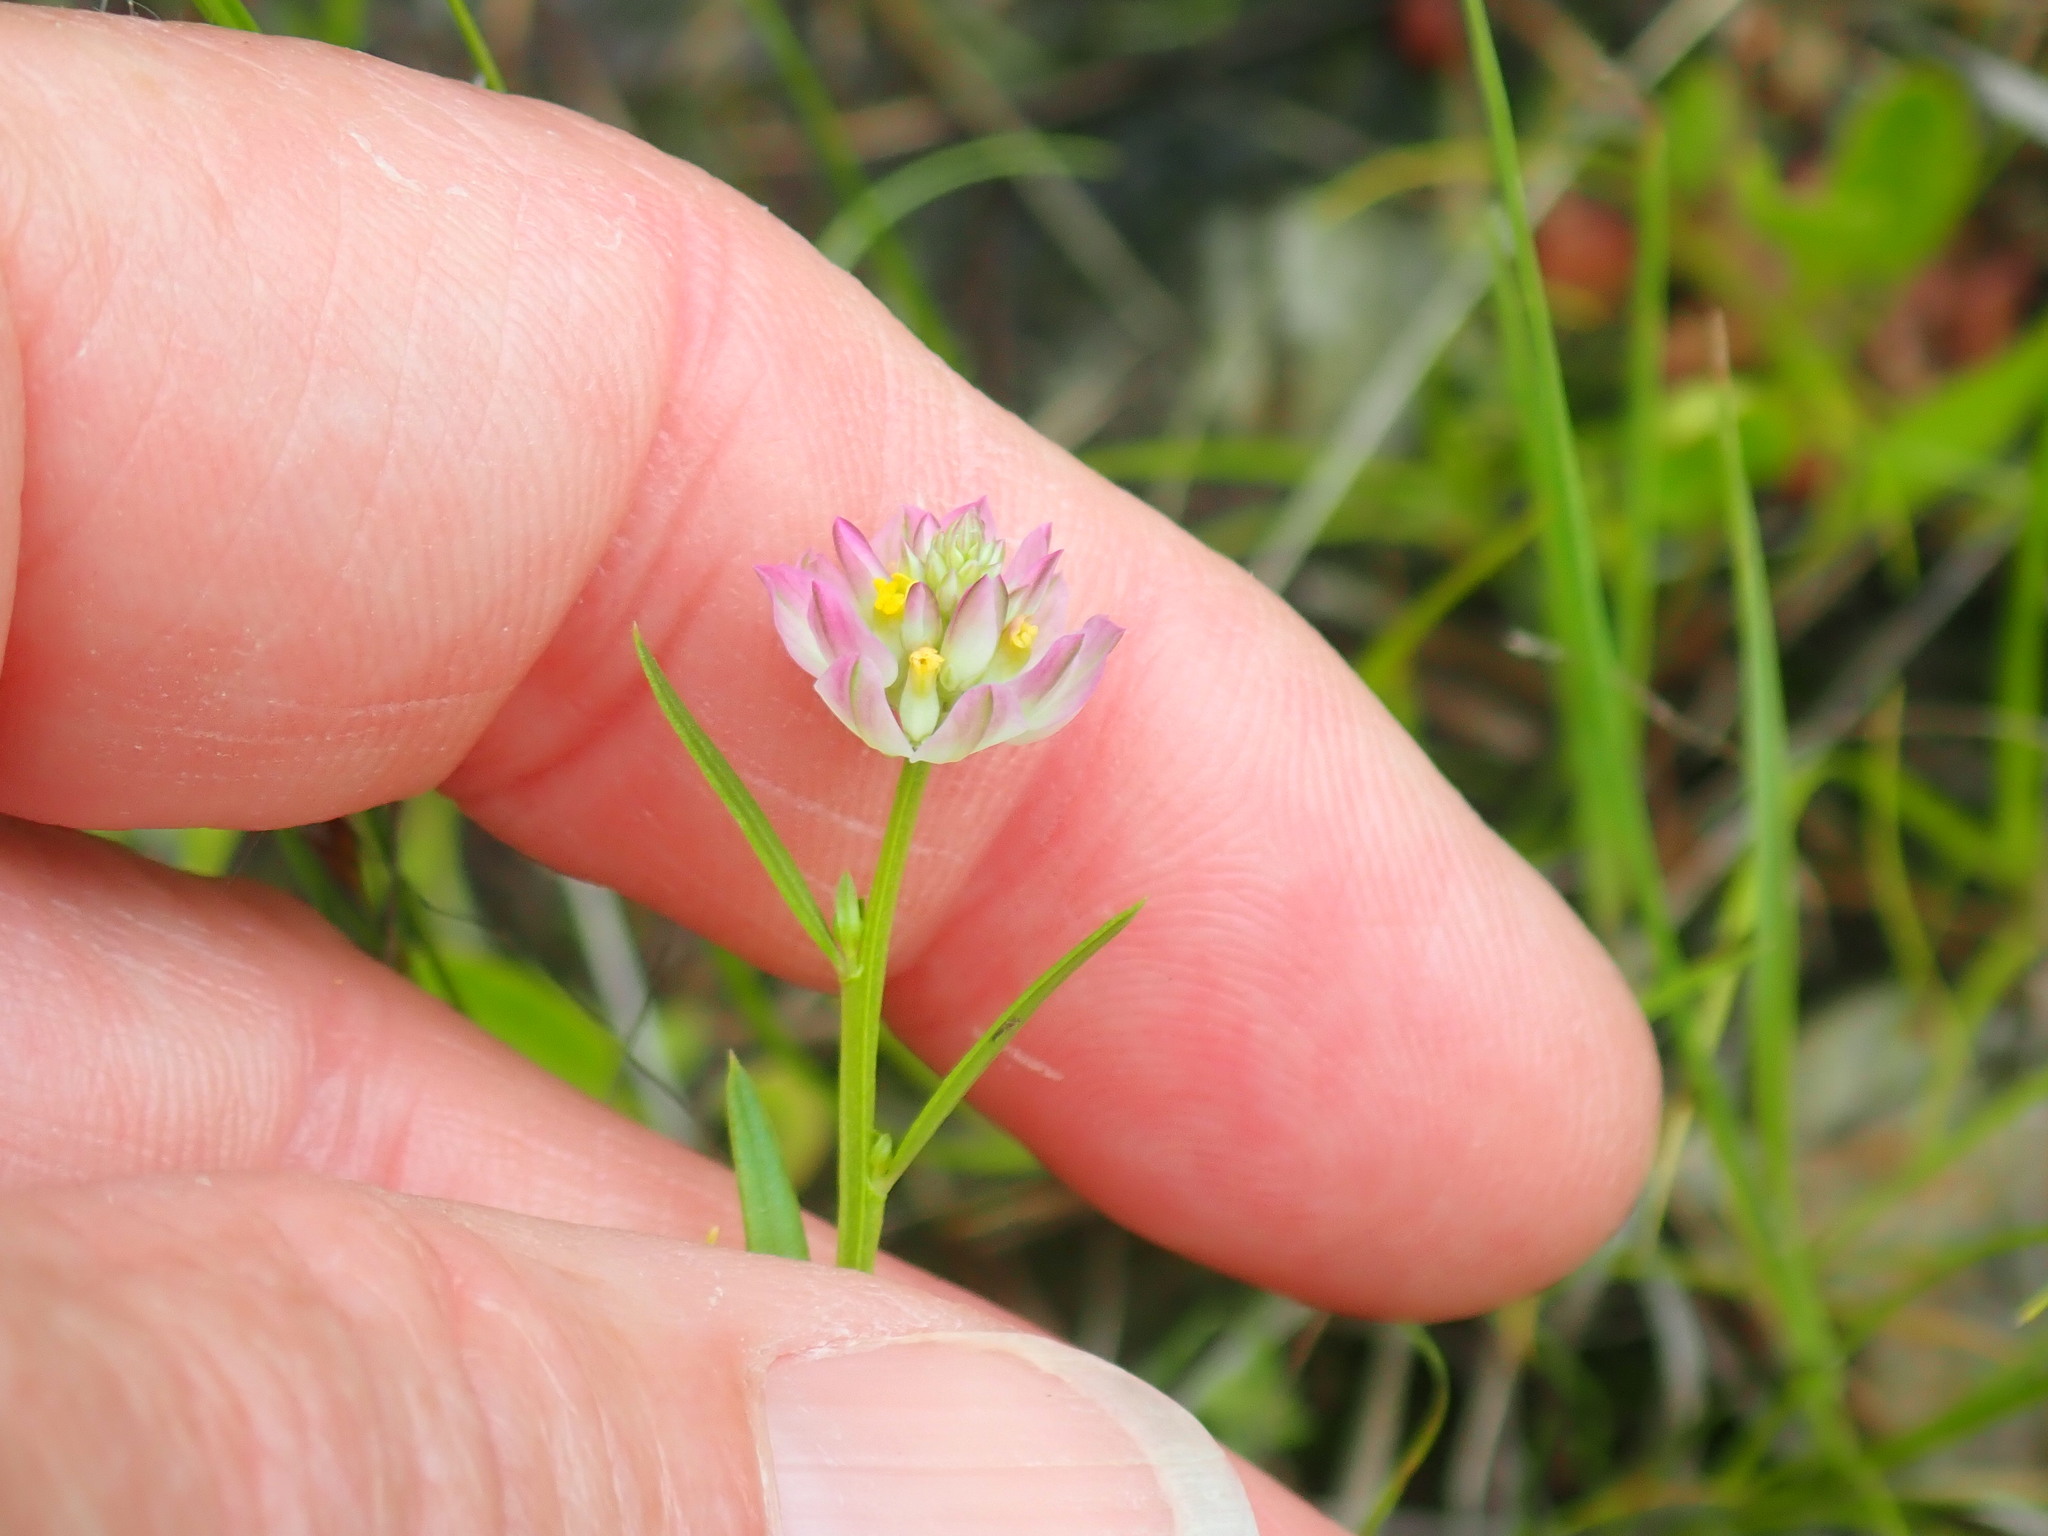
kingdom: Plantae
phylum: Tracheophyta
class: Magnoliopsida
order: Fabales
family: Polygalaceae
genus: Polygala
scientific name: Polygala sanguinea
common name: Blood milkwort
